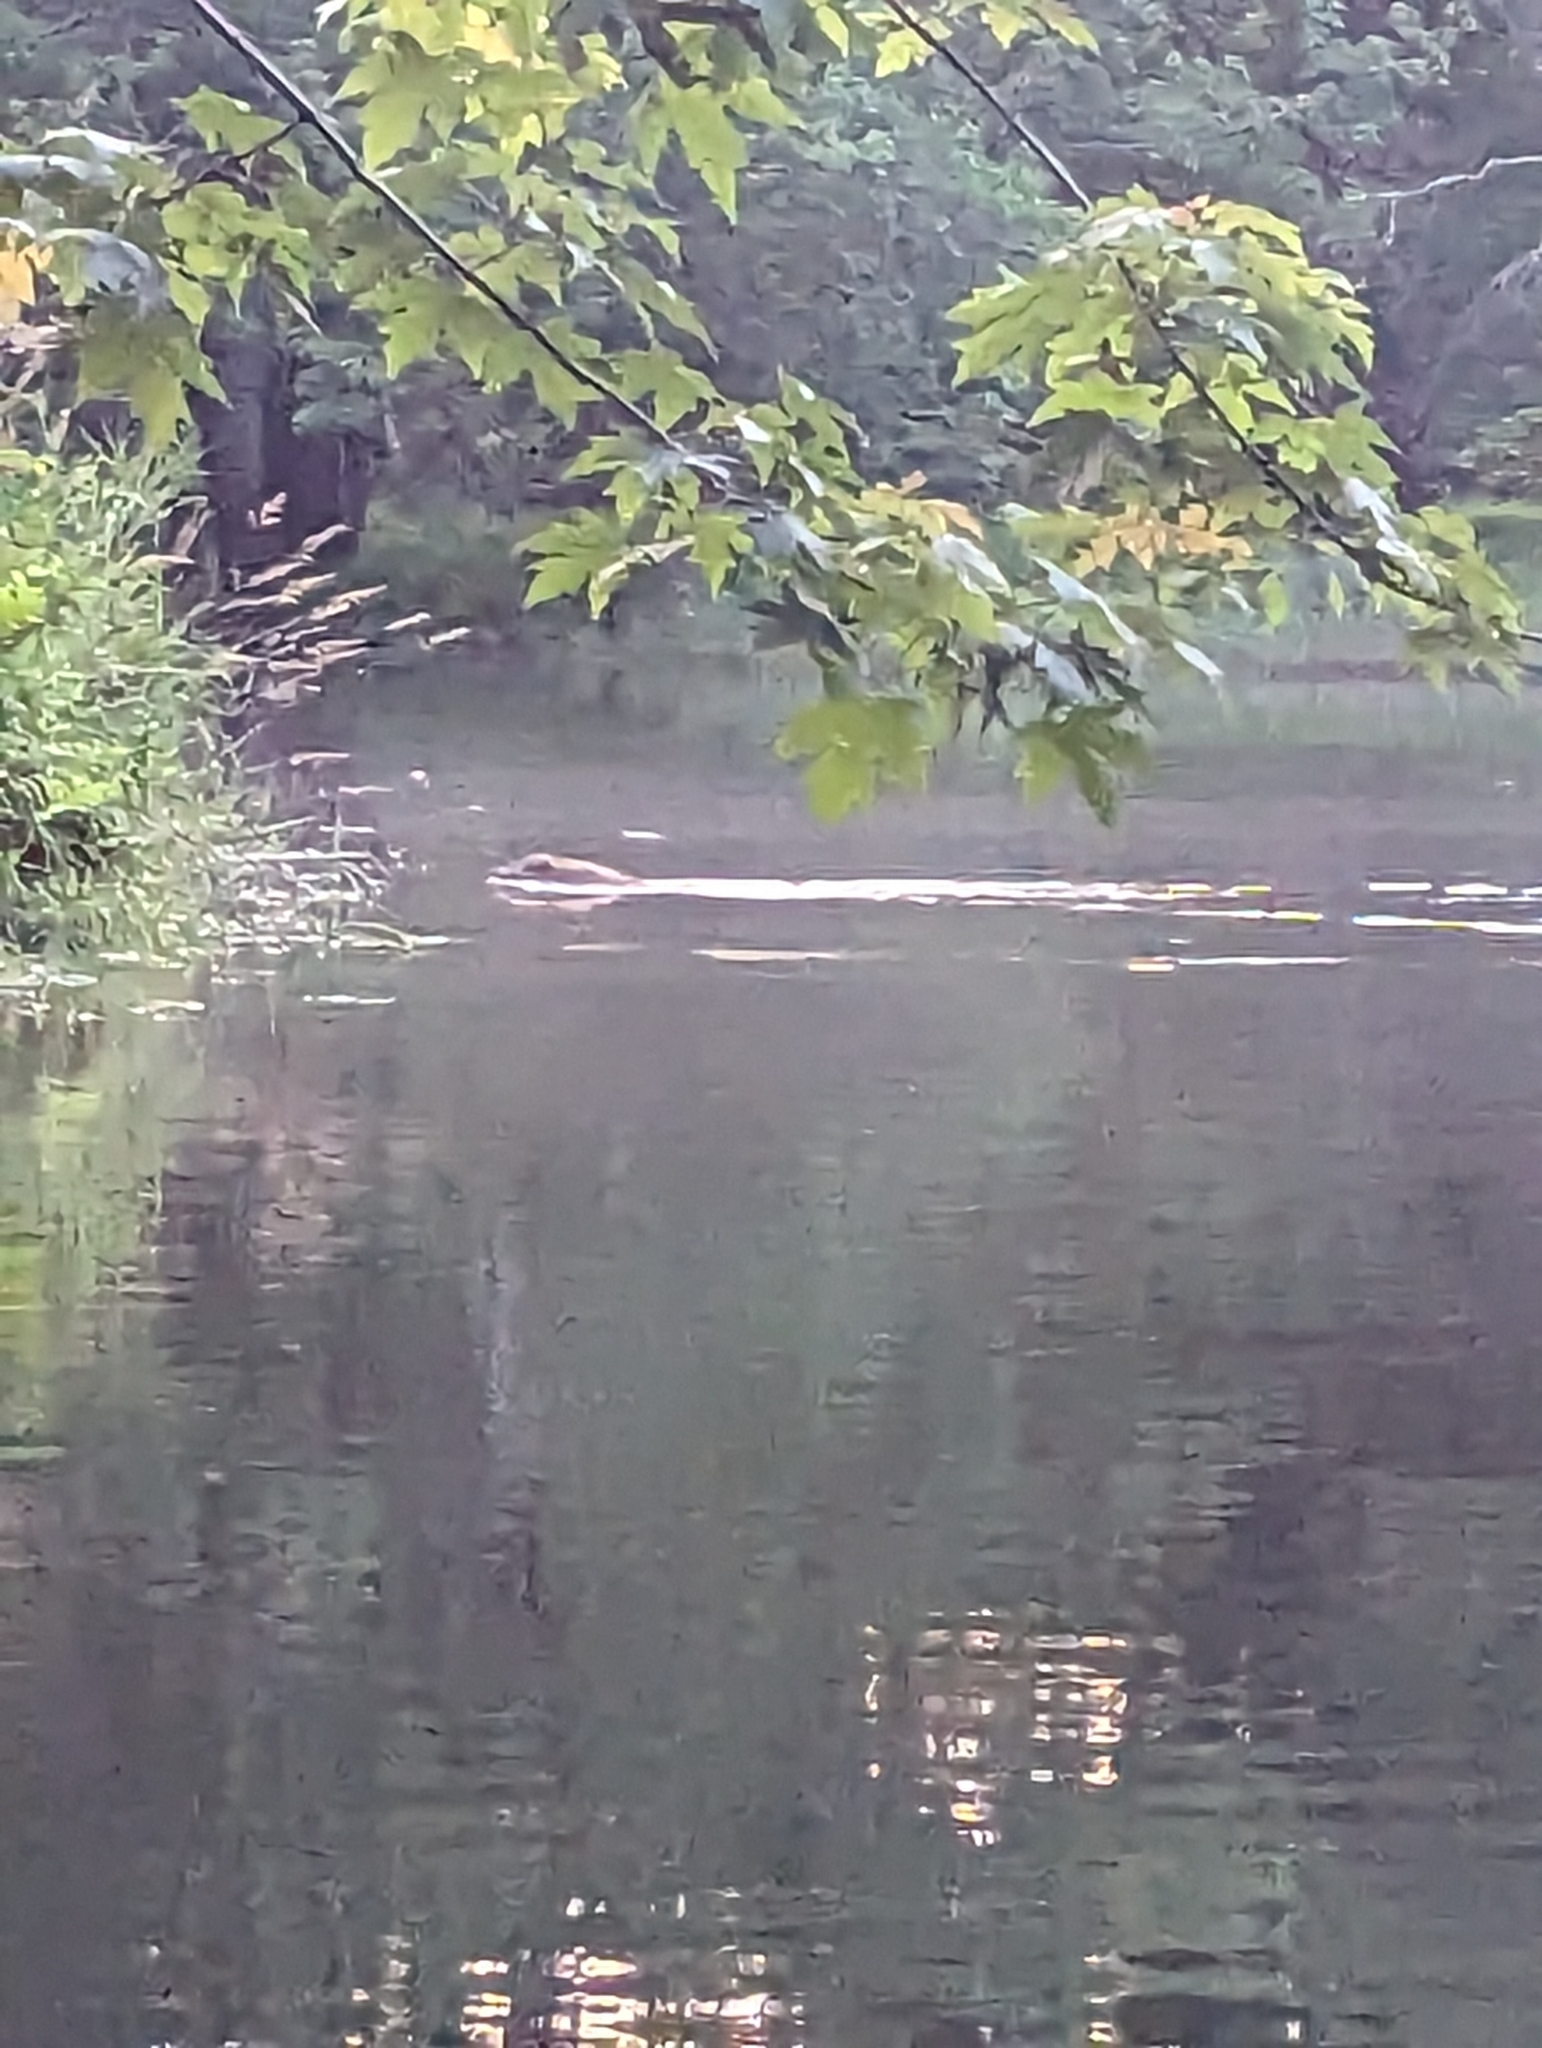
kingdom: Animalia
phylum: Chordata
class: Mammalia
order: Carnivora
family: Procyonidae
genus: Procyon
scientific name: Procyon lotor
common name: Raccoon
